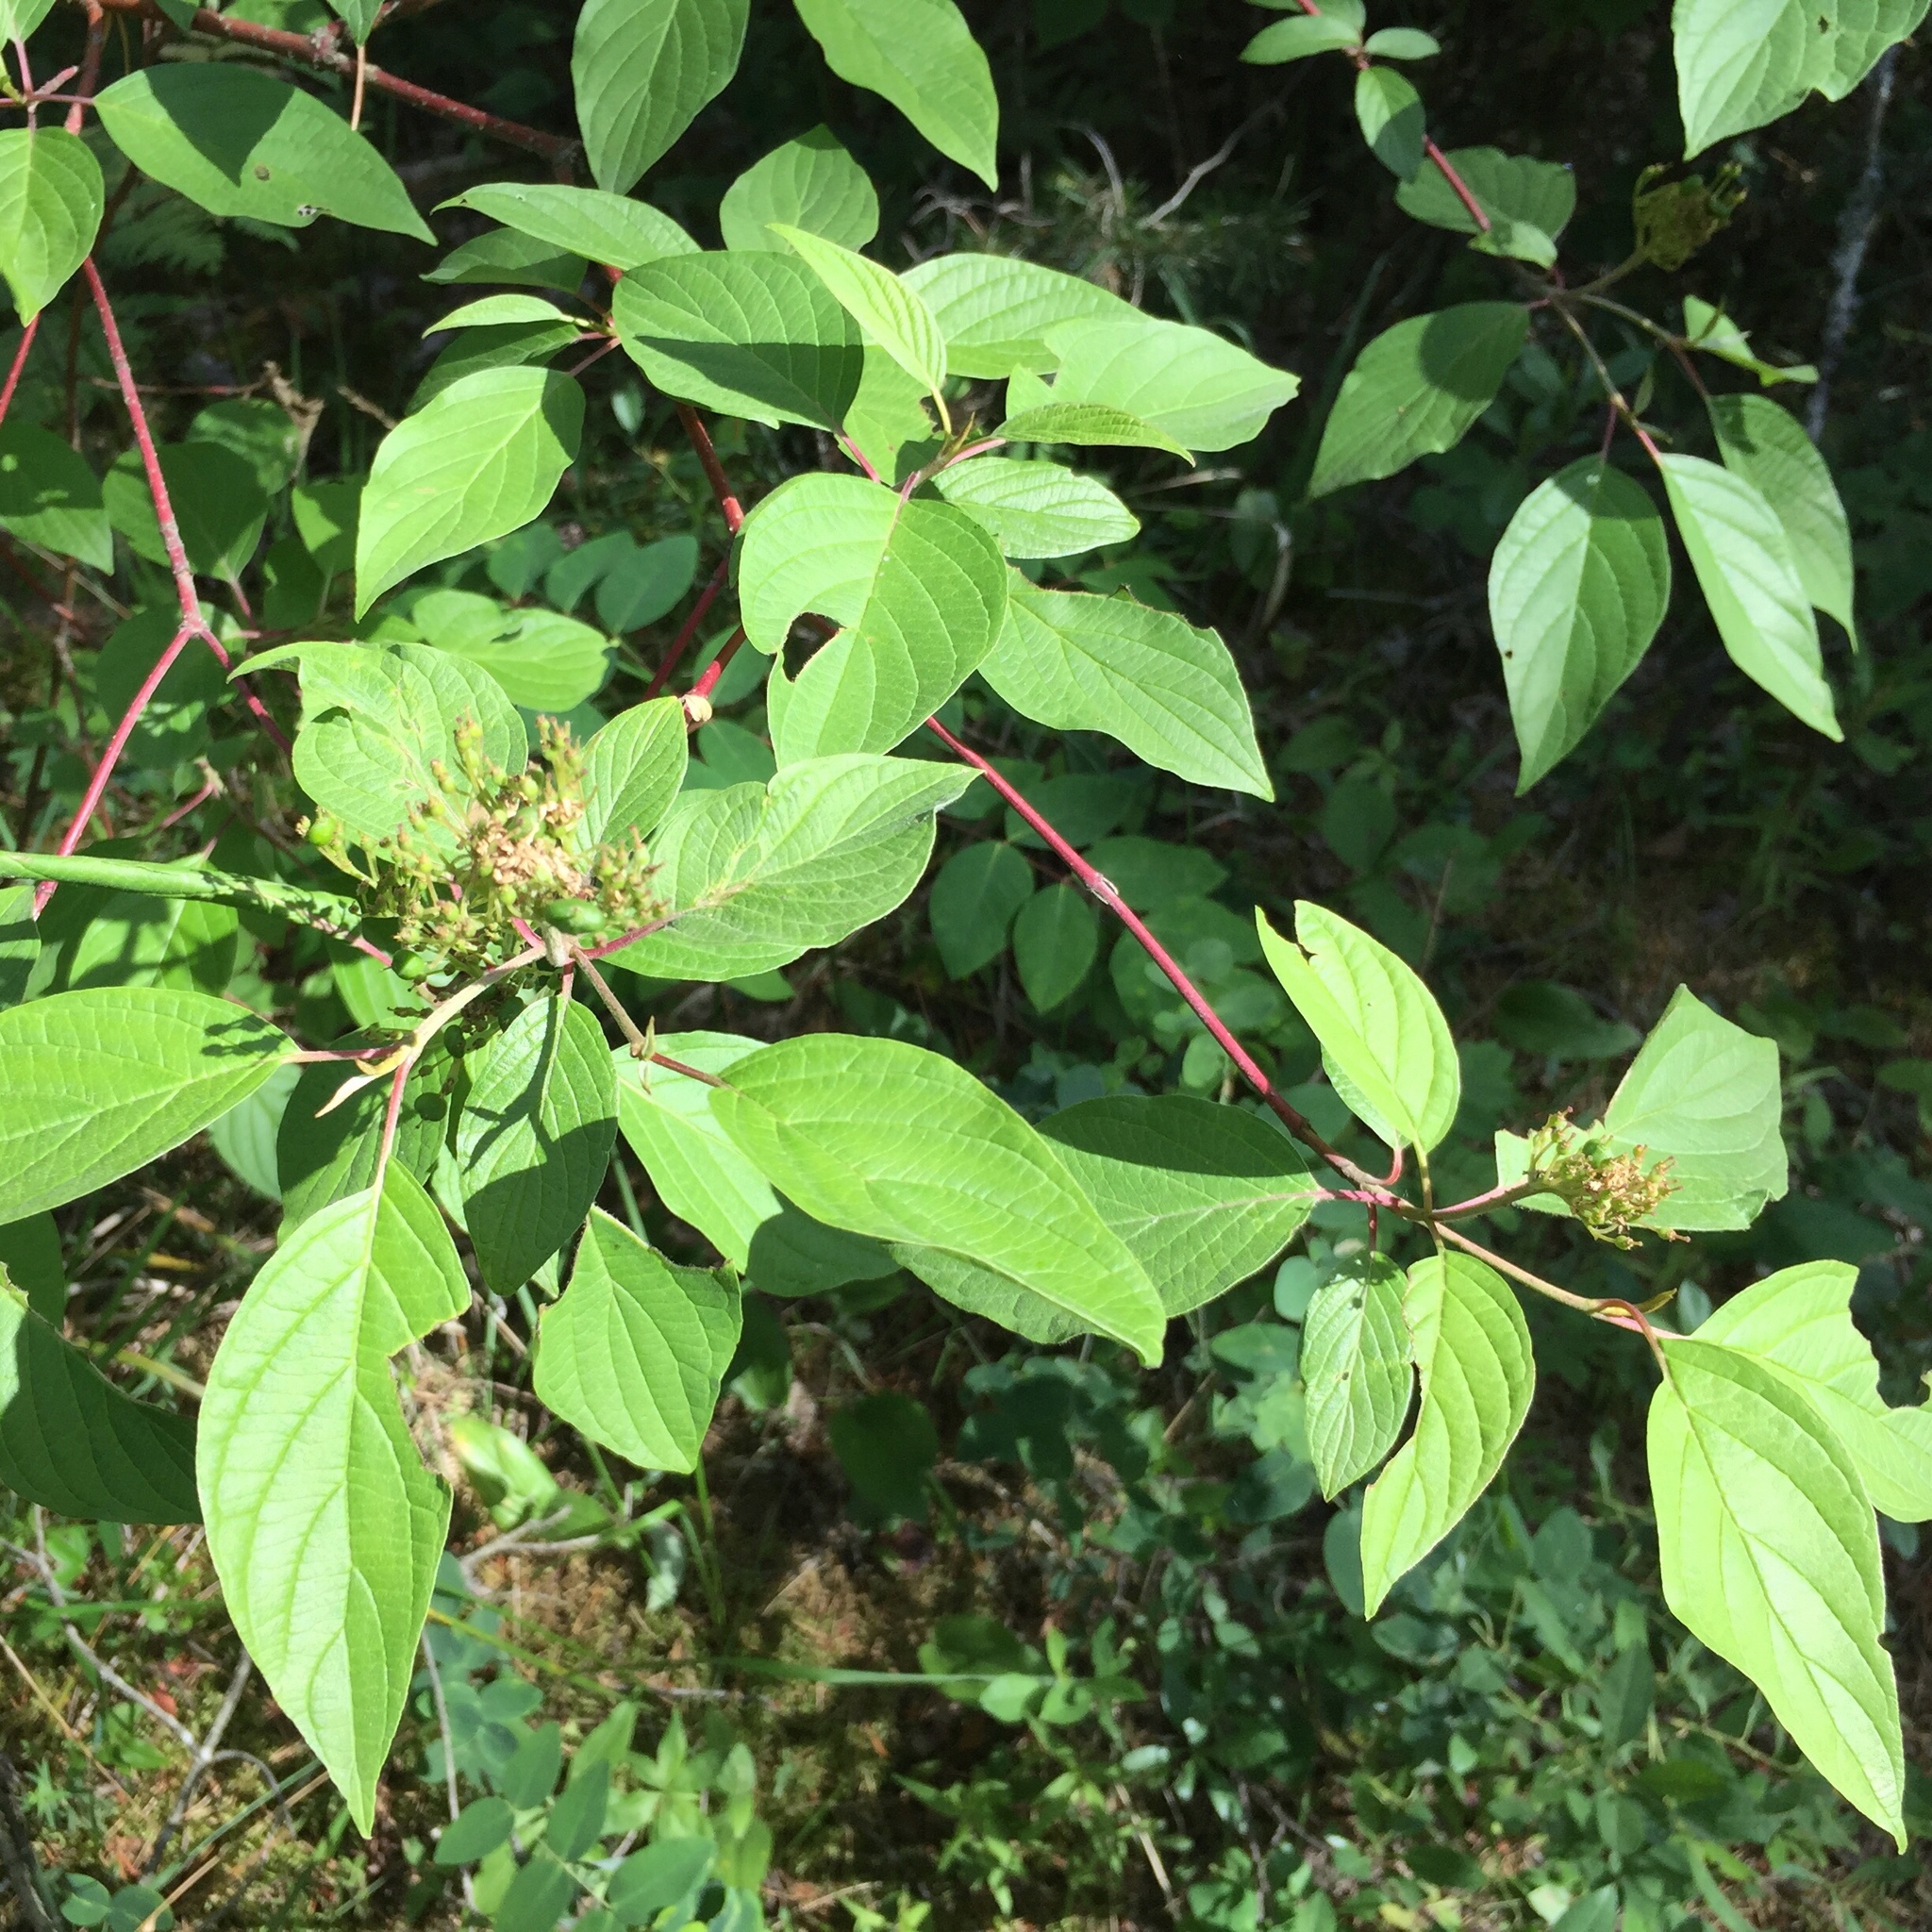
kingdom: Plantae
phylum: Tracheophyta
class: Magnoliopsida
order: Cornales
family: Cornaceae
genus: Cornus
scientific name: Cornus sericea
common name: Red-osier dogwood
